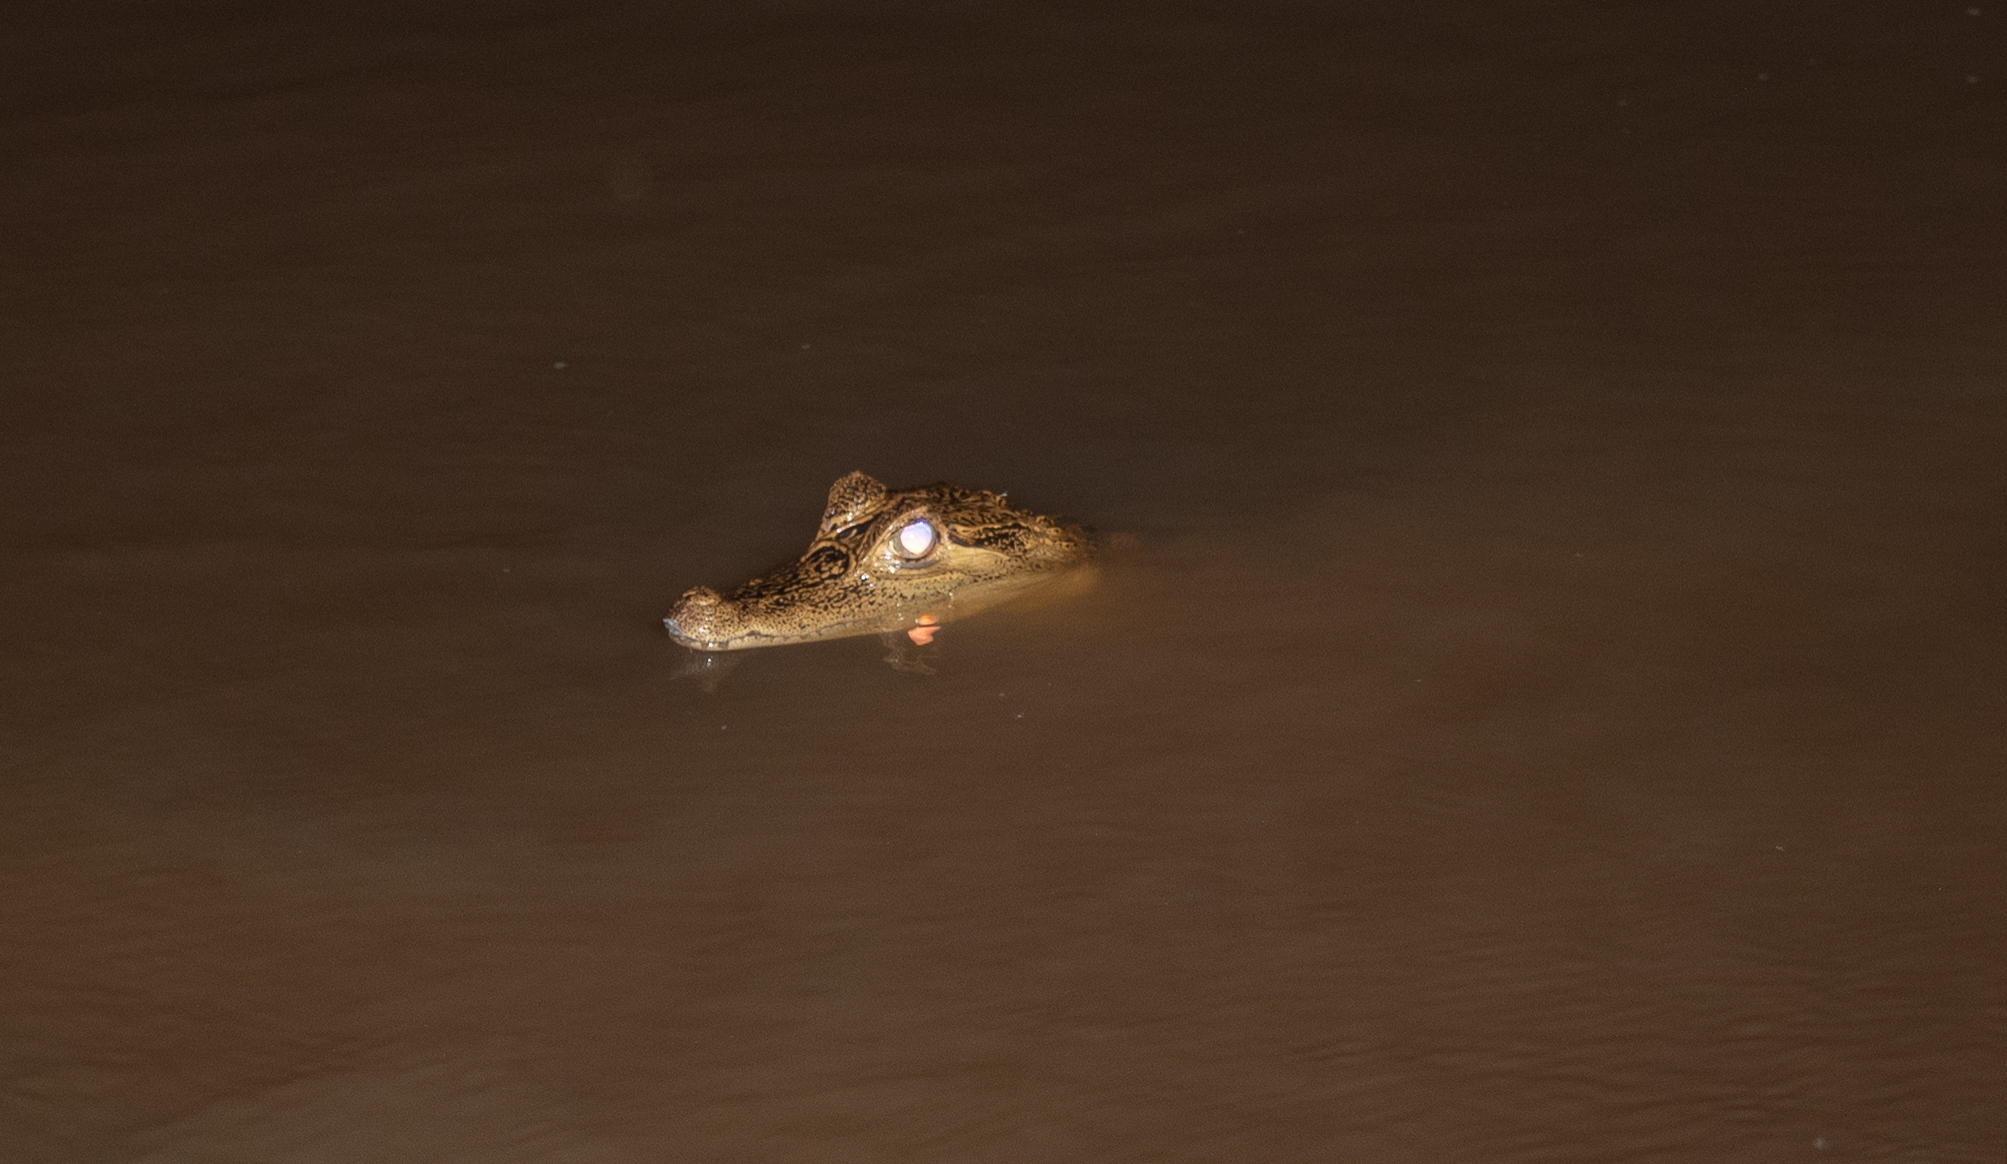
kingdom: Animalia
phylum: Chordata
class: Crocodylia
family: Alligatoridae
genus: Caiman
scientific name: Caiman crocodilus
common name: Common caiman
